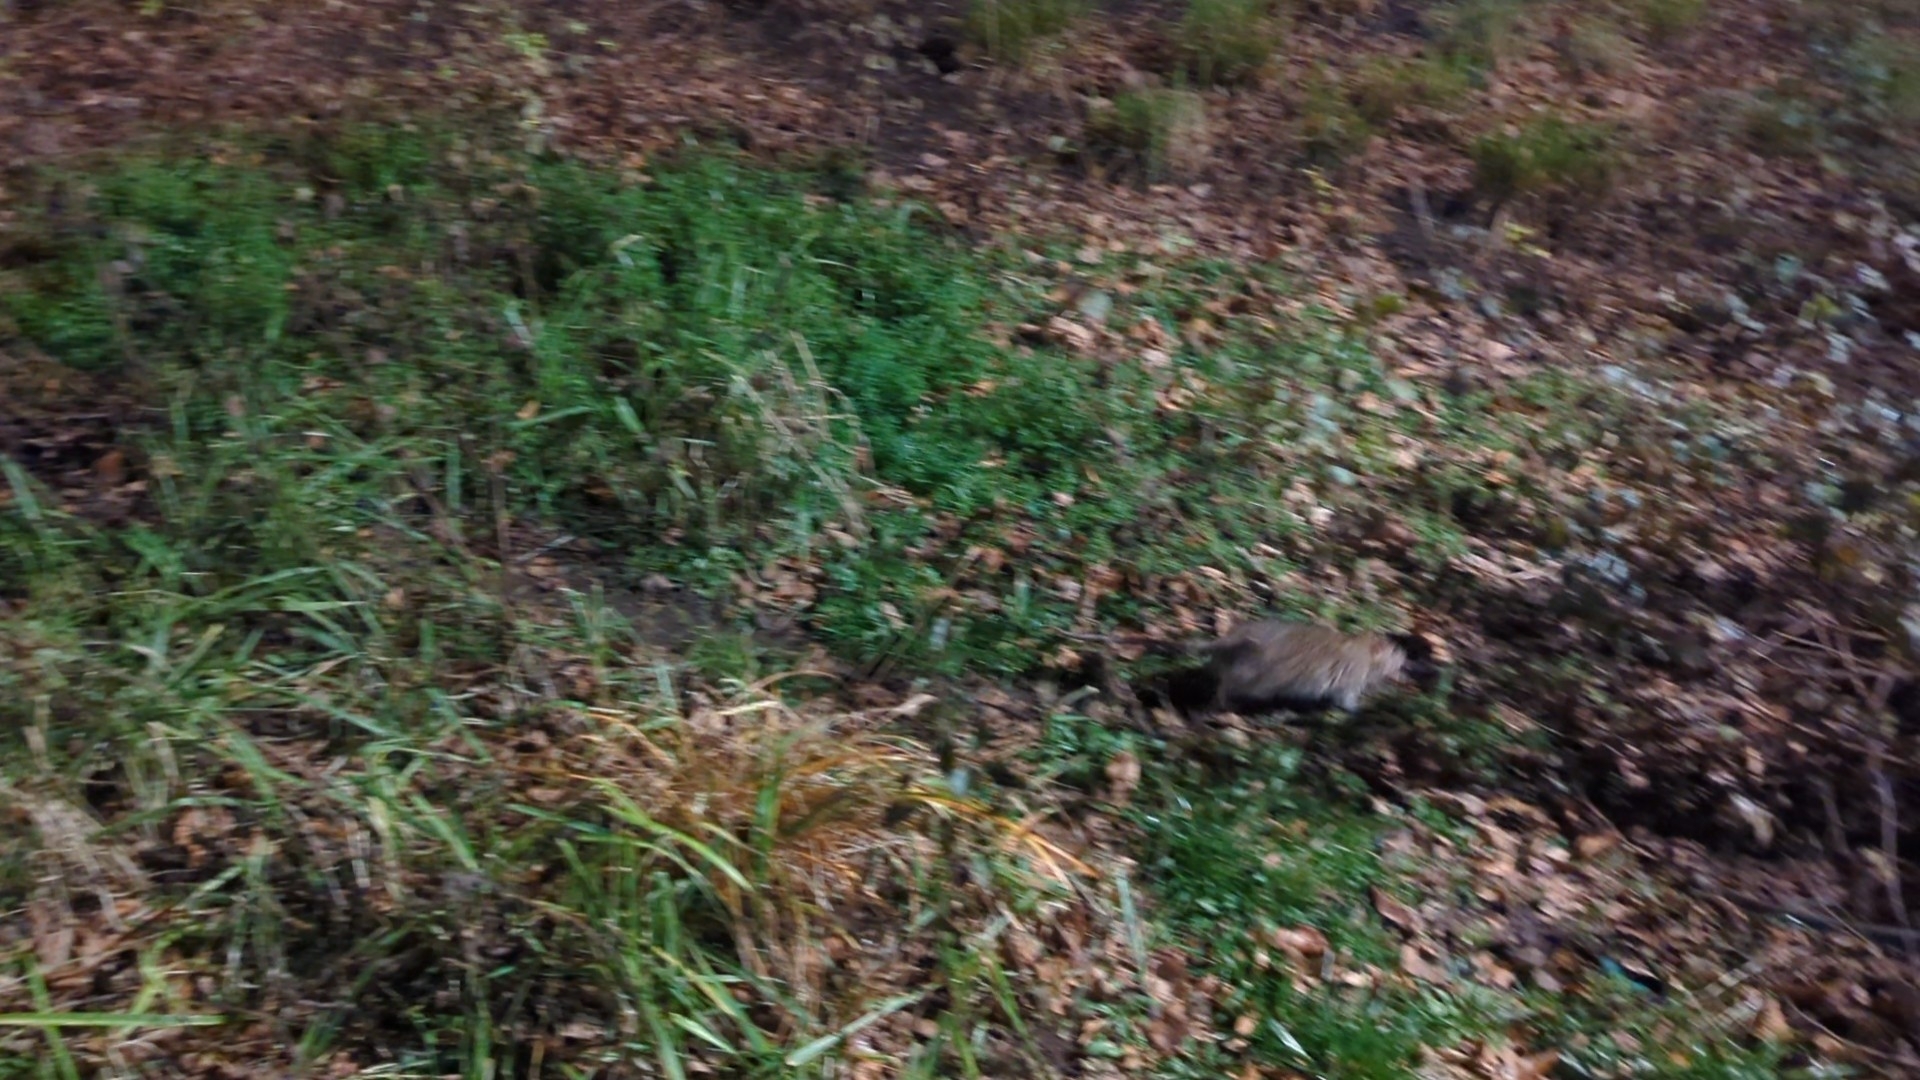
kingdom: Animalia
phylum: Chordata
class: Mammalia
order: Rodentia
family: Muridae
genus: Rattus
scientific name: Rattus norvegicus
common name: Brown rat
